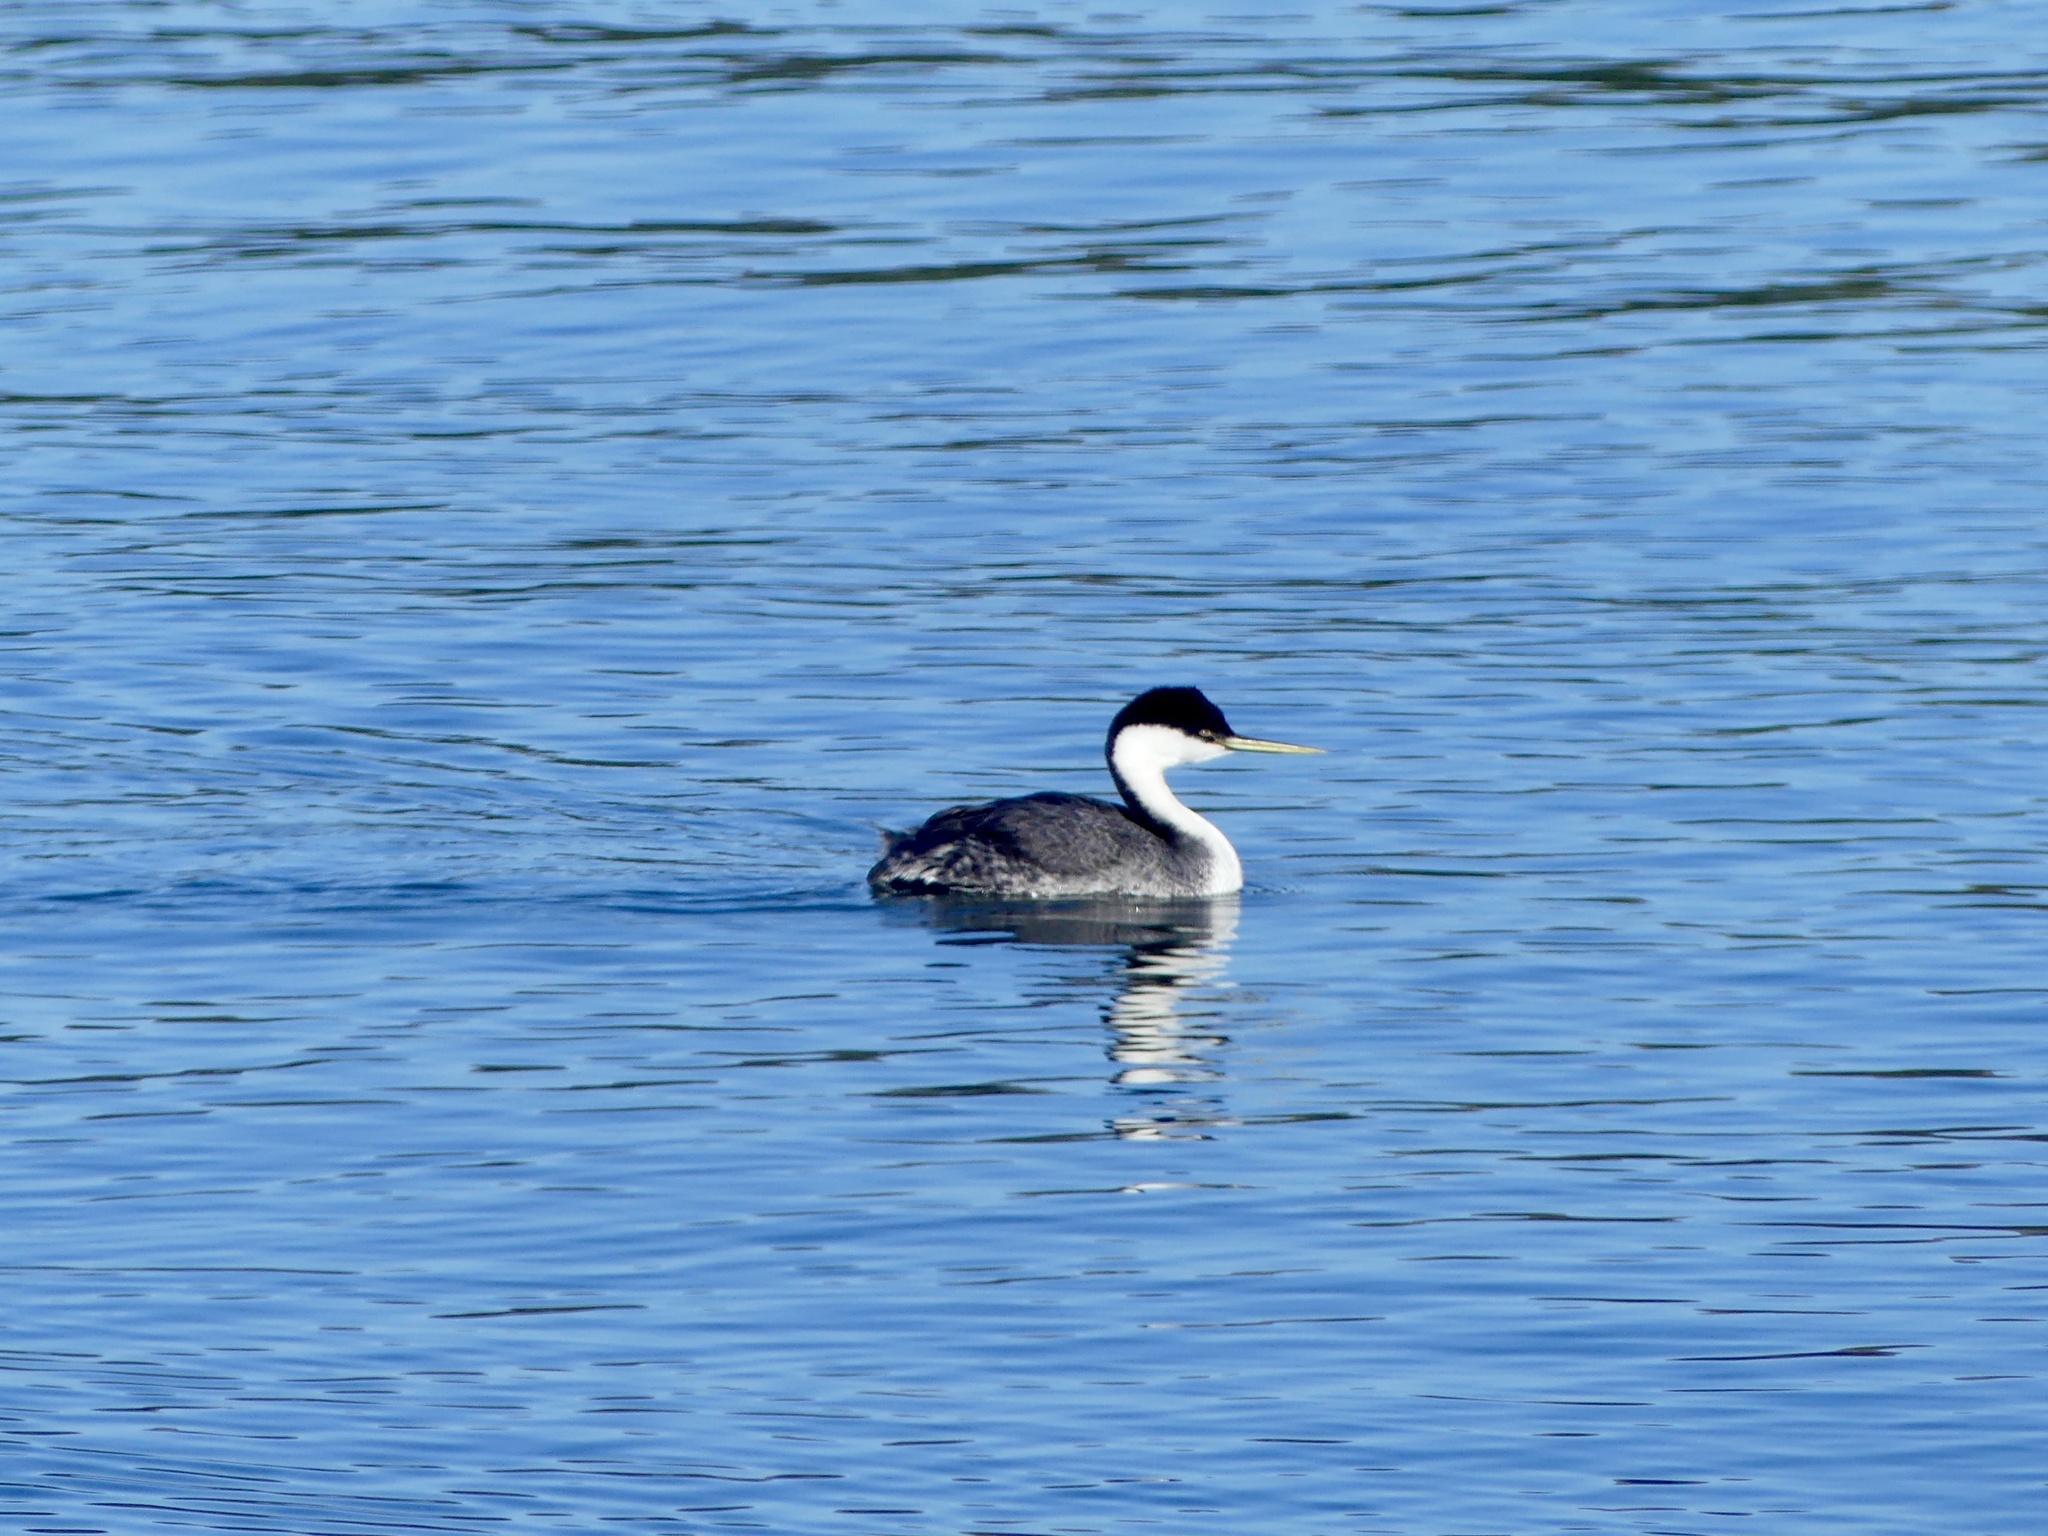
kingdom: Animalia
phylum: Chordata
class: Aves
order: Podicipediformes
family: Podicipedidae
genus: Aechmophorus
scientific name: Aechmophorus occidentalis
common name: Western grebe
